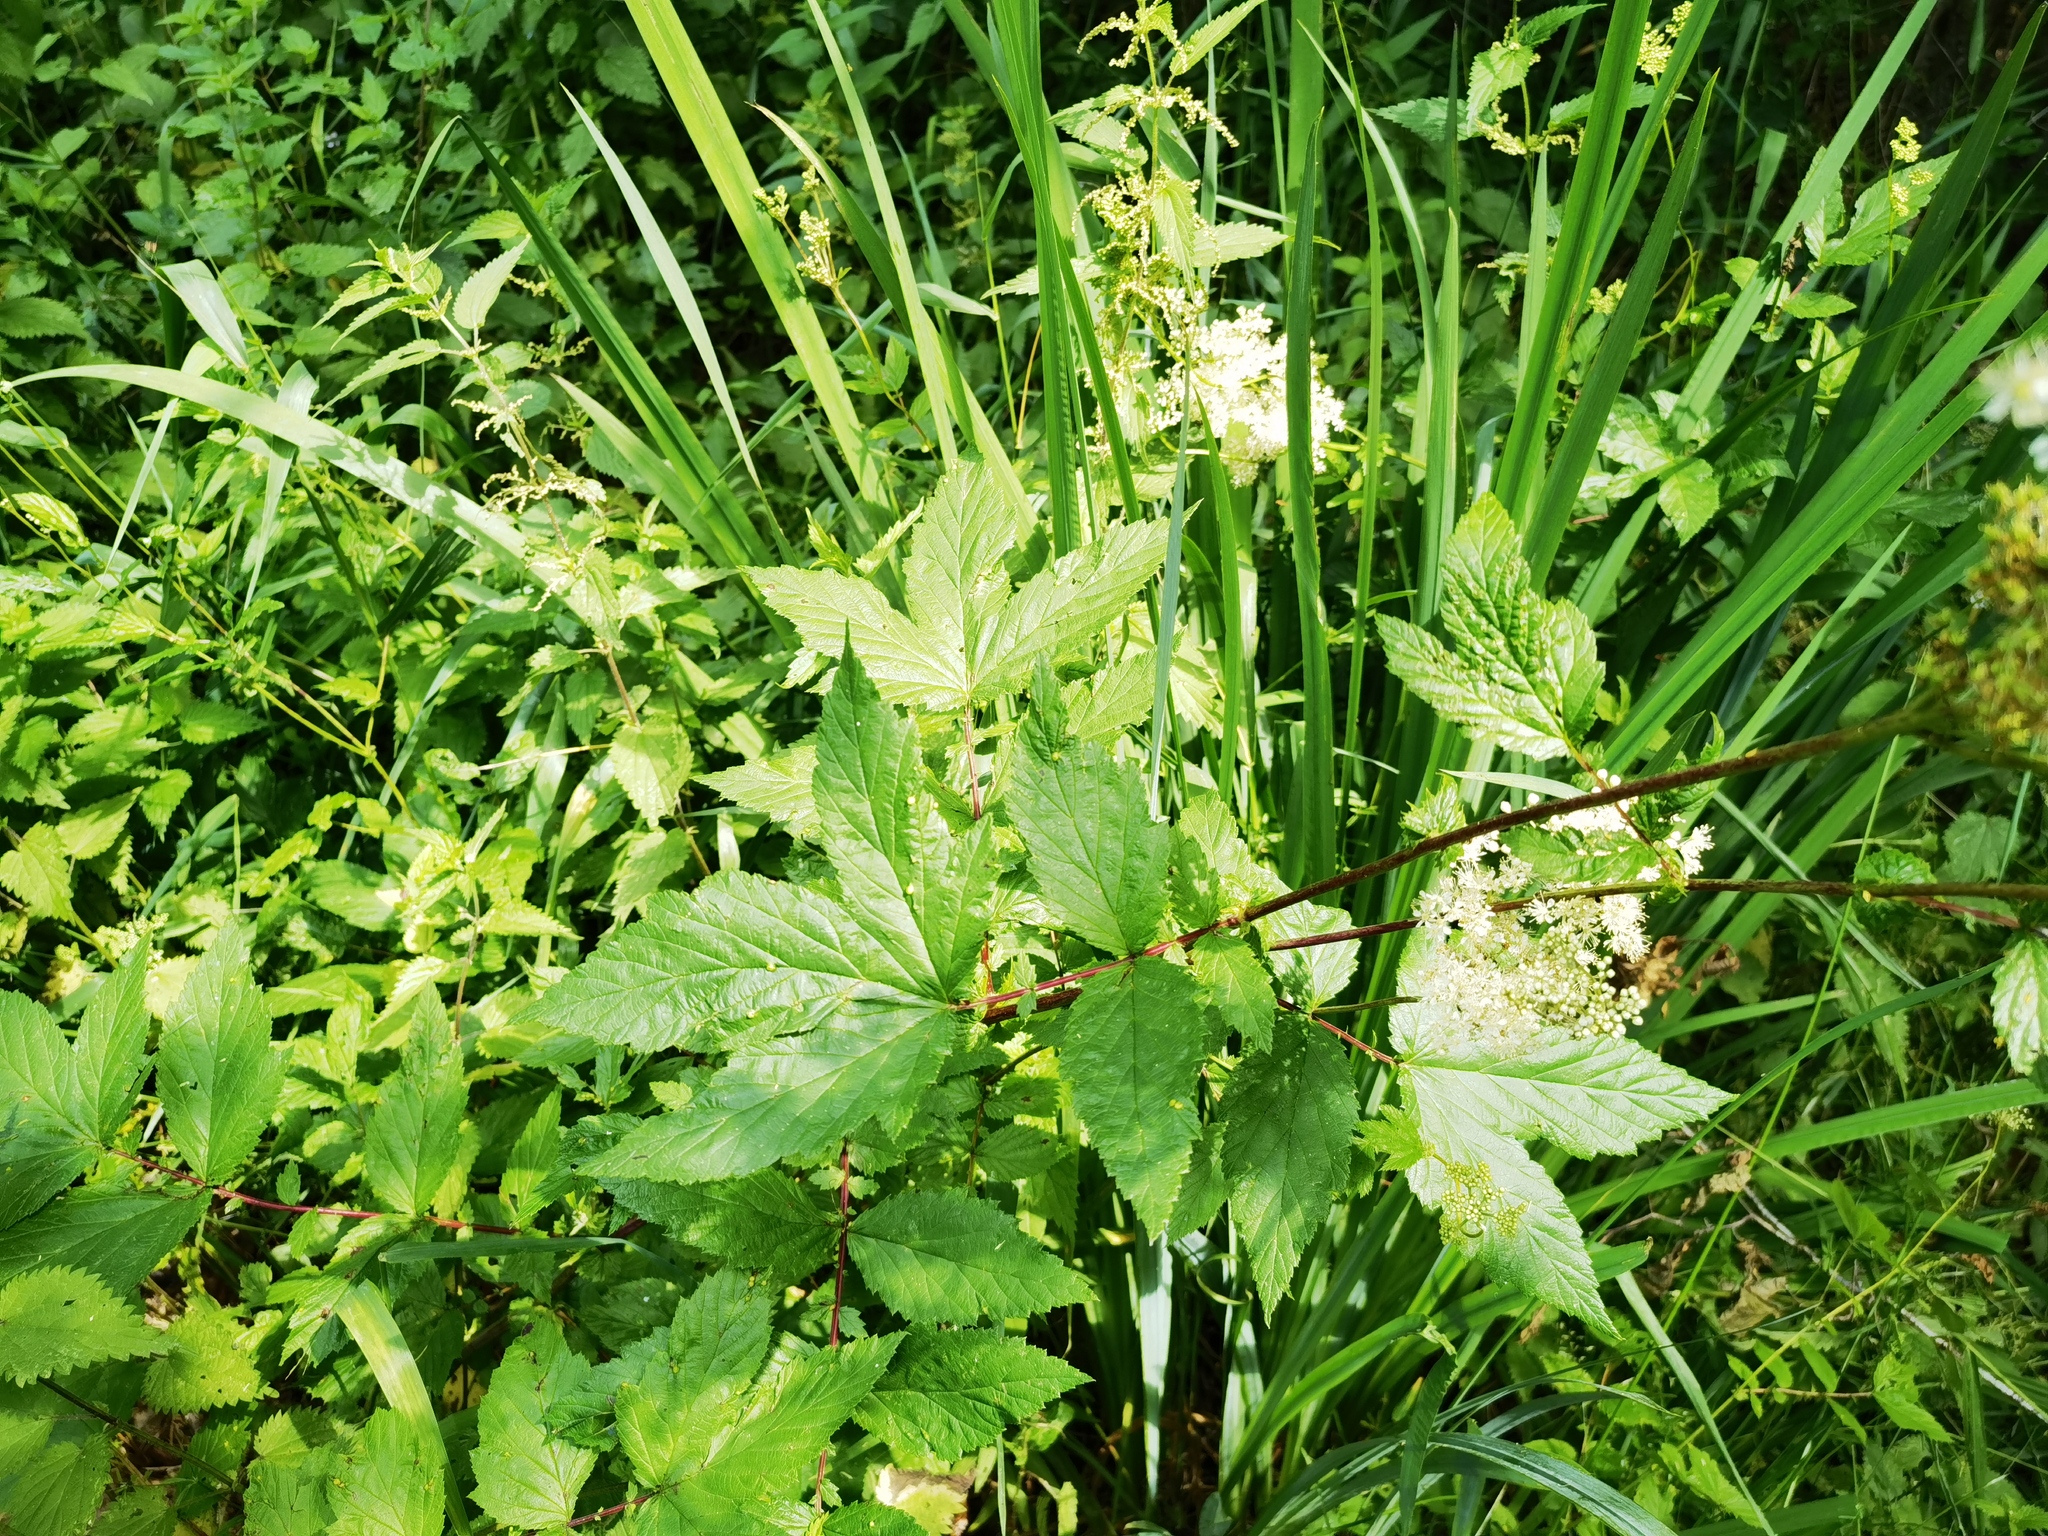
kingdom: Plantae
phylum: Tracheophyta
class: Magnoliopsida
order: Rosales
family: Rosaceae
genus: Filipendula
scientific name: Filipendula ulmaria
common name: Meadowsweet
